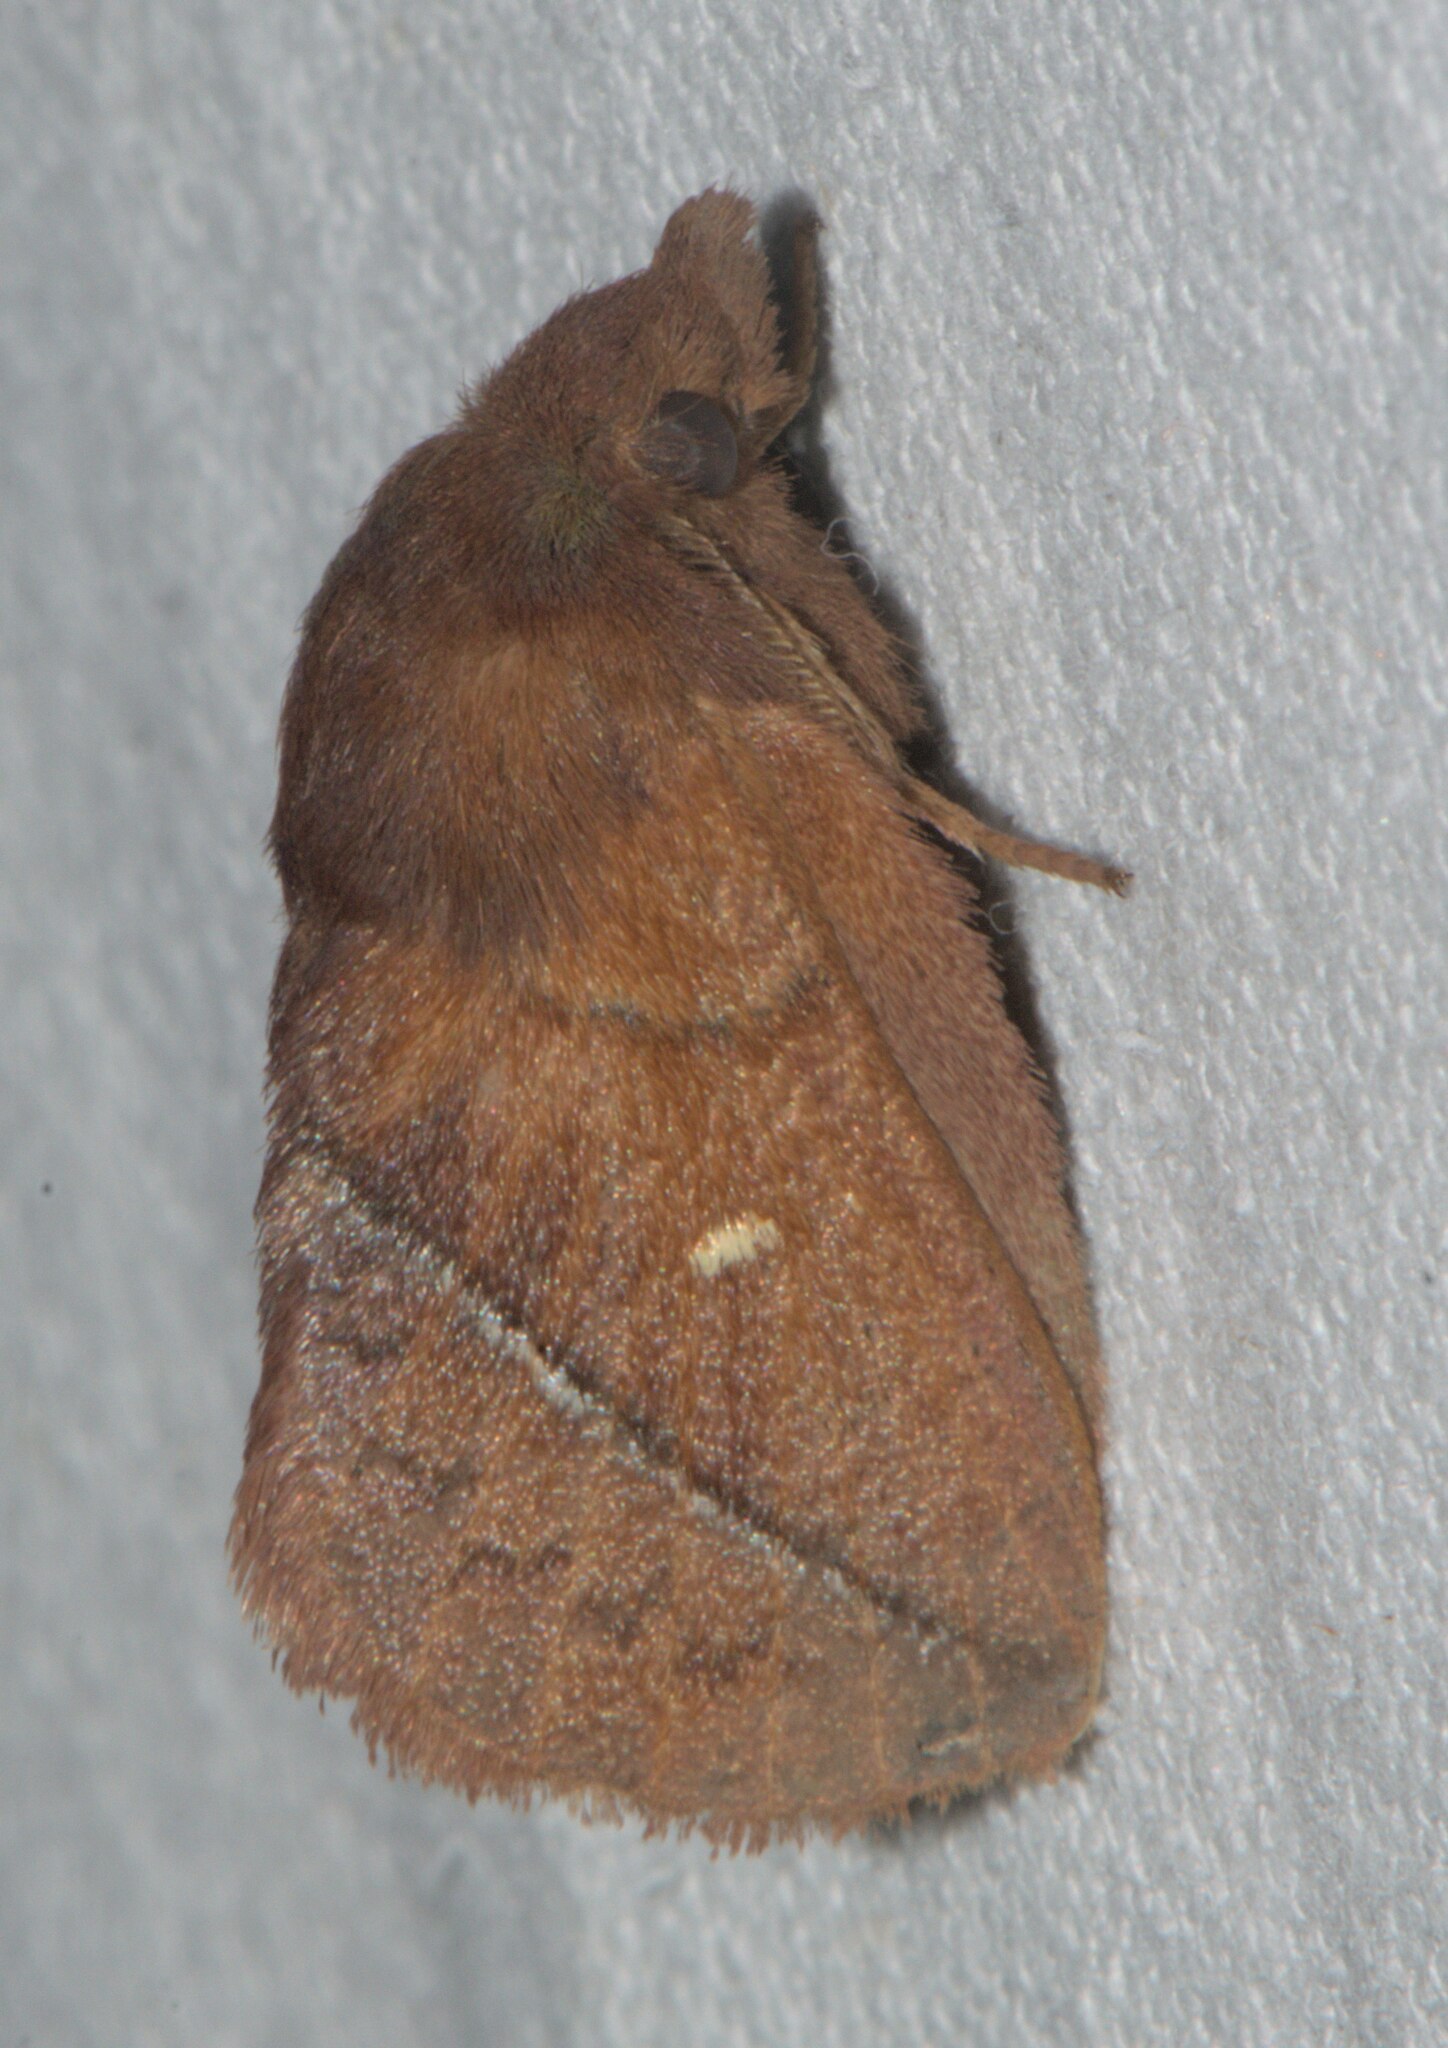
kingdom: Animalia
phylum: Arthropoda
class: Insecta
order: Lepidoptera
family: Lasiocampidae
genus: Euthrix
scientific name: Euthrix fossa
